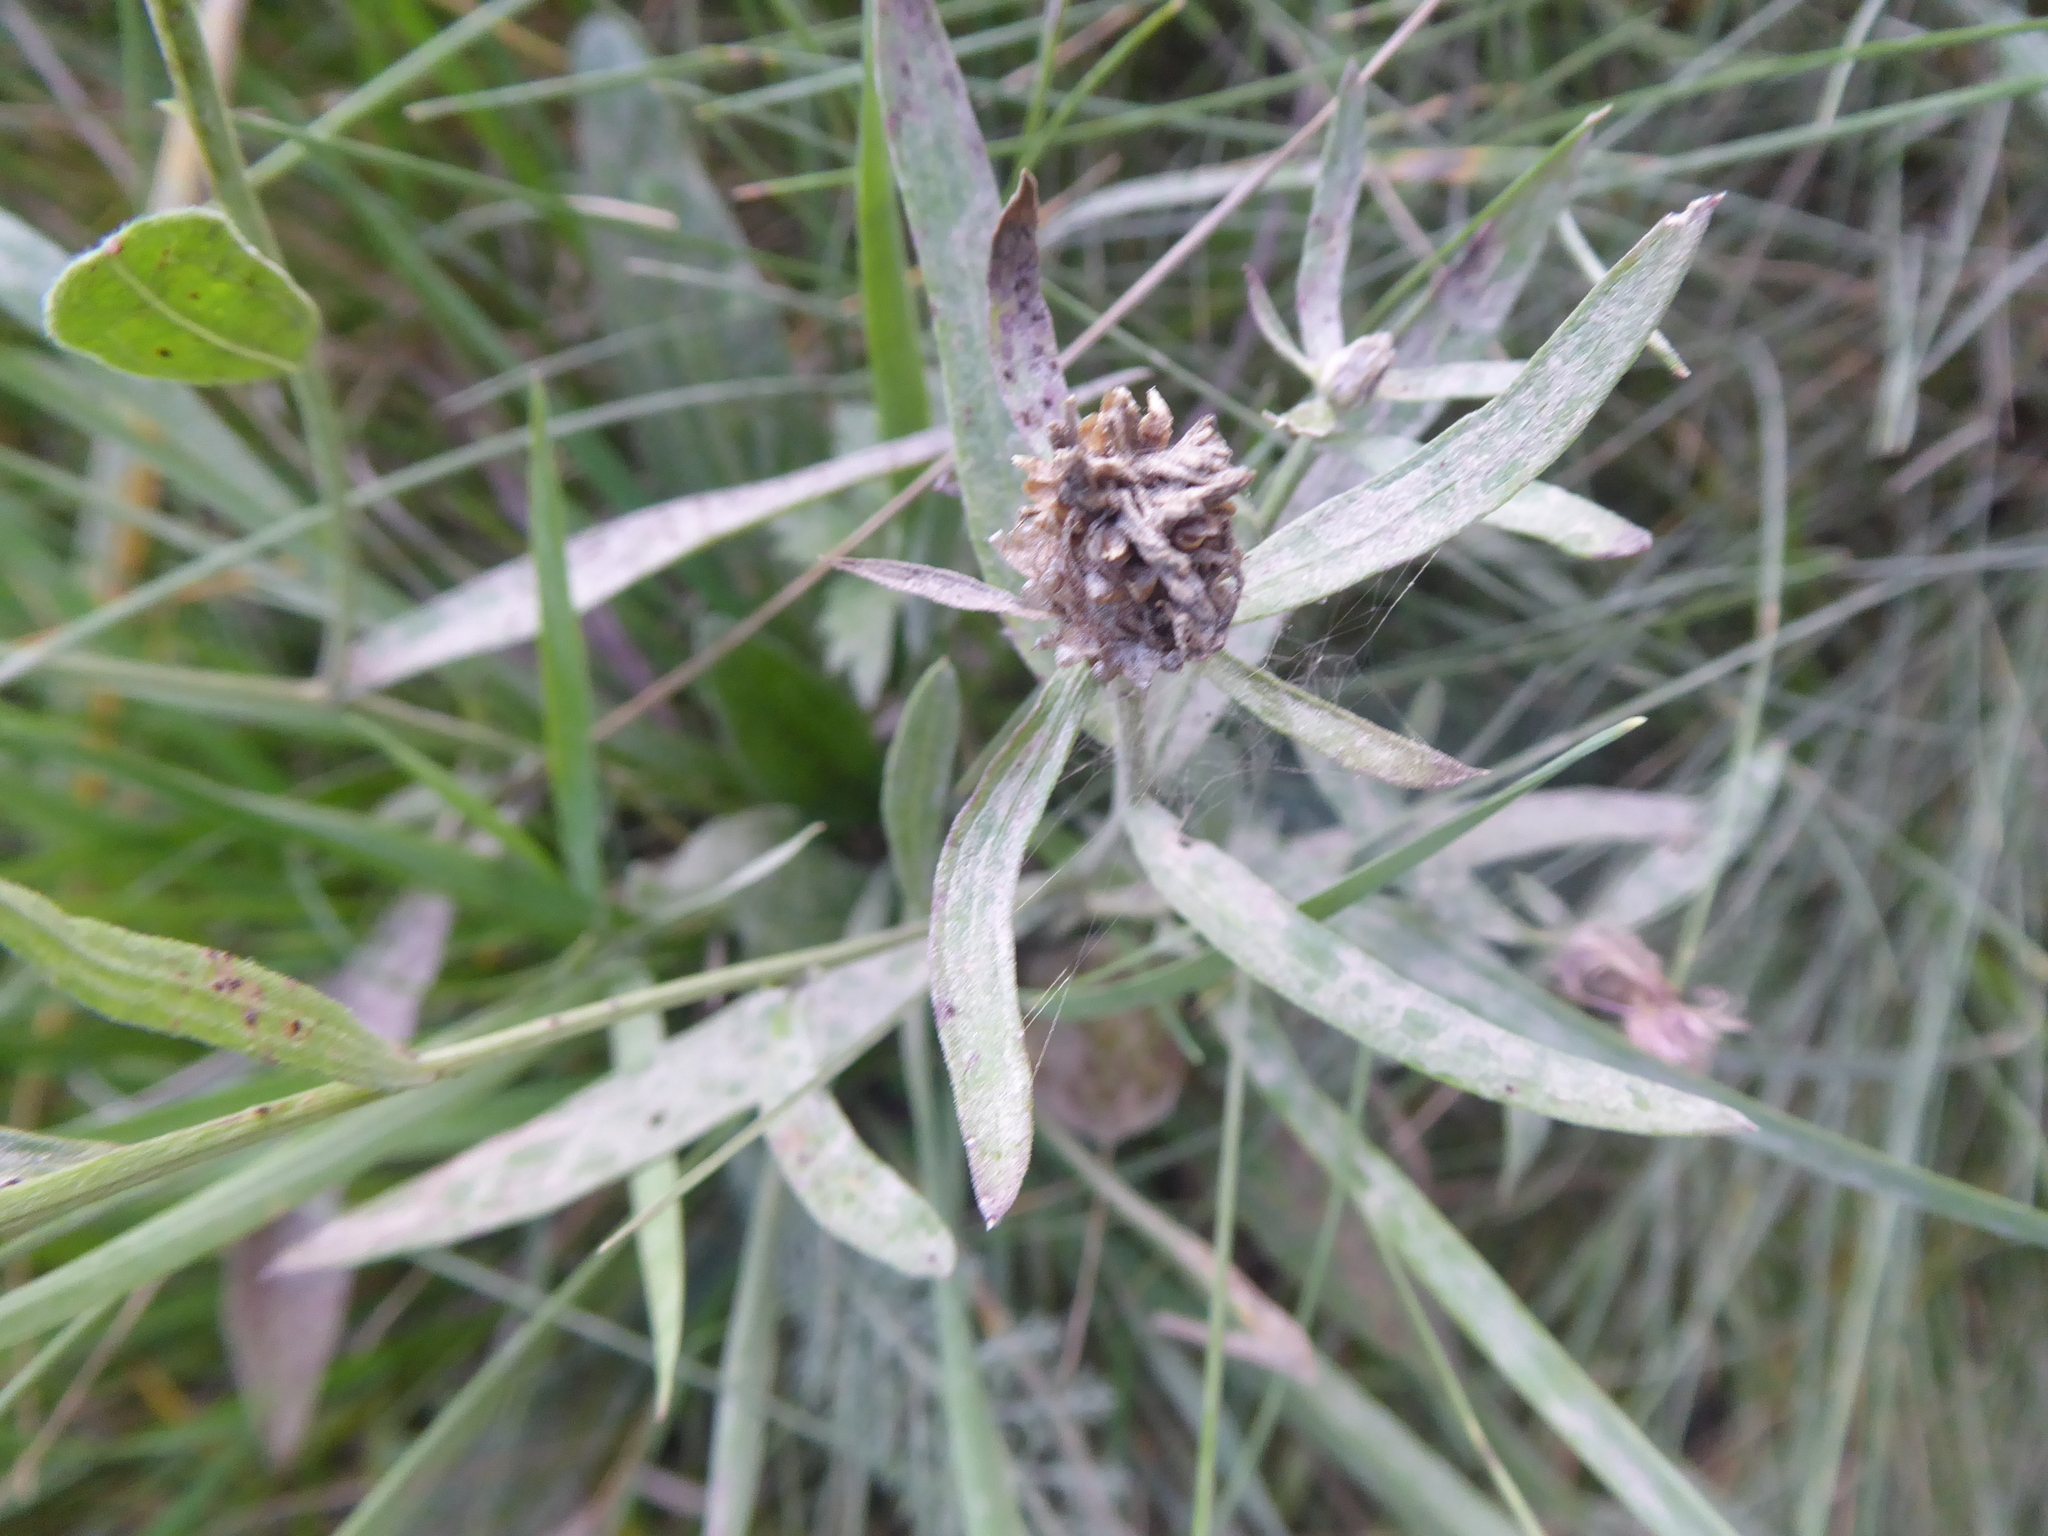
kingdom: Plantae
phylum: Tracheophyta
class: Magnoliopsida
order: Asterales
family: Asteraceae
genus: Centaurea
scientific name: Centaurea jacea
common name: Brown knapweed
